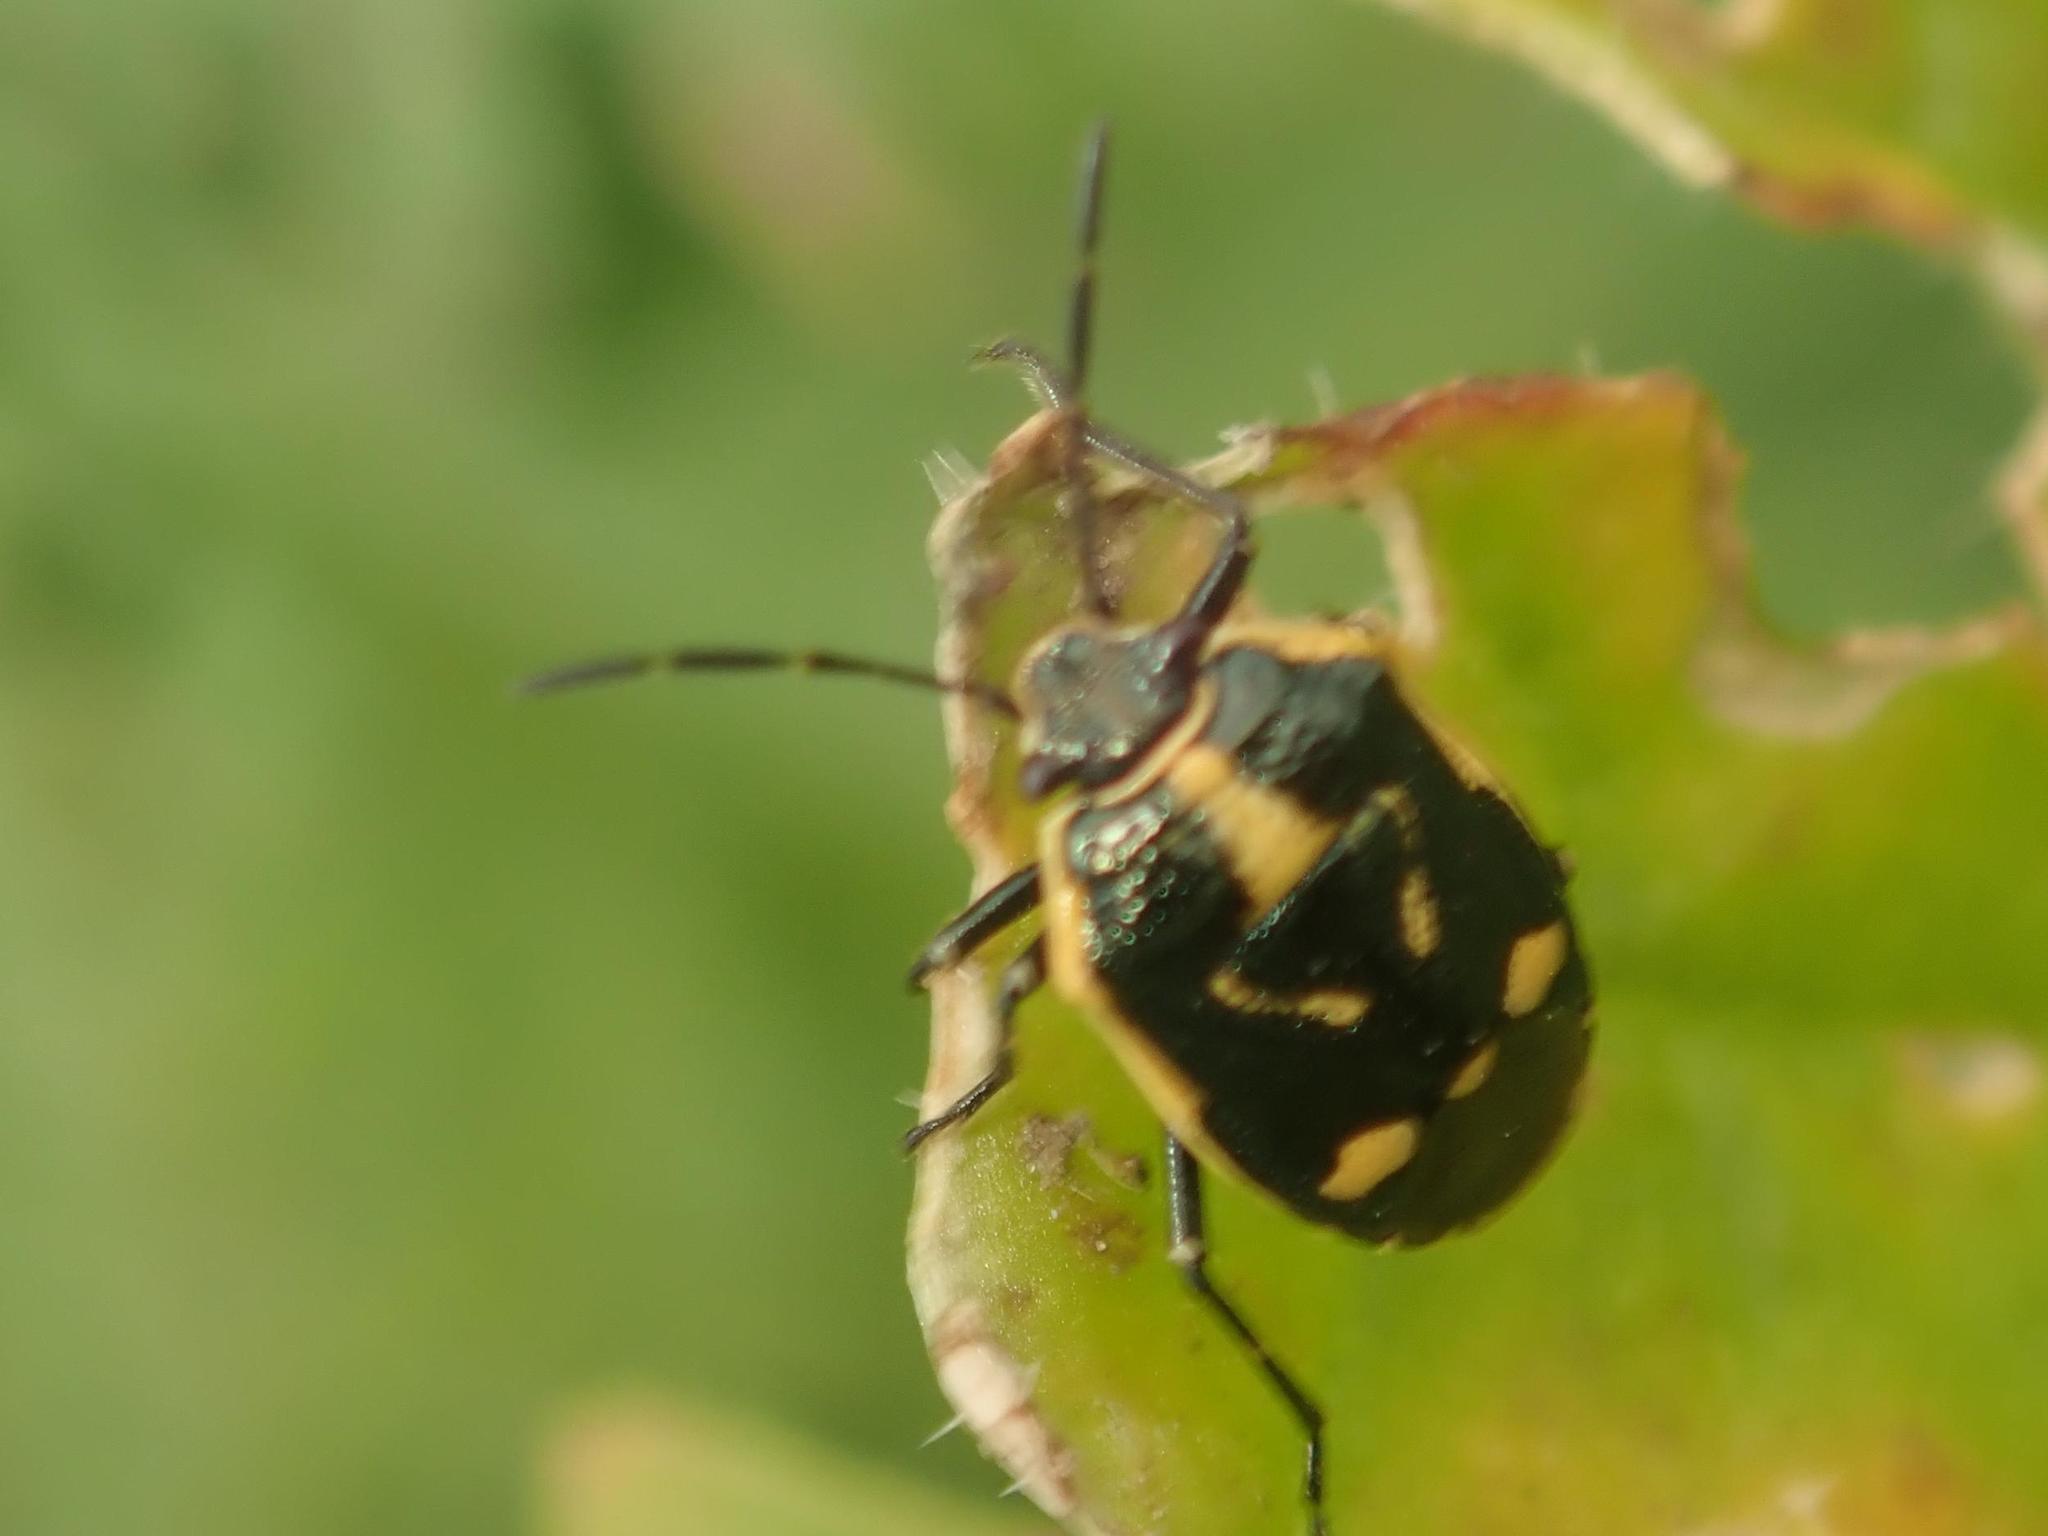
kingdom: Animalia
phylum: Arthropoda
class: Insecta
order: Hemiptera
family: Pentatomidae
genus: Eurydema
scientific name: Eurydema oleracea
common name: Cabbage bug
